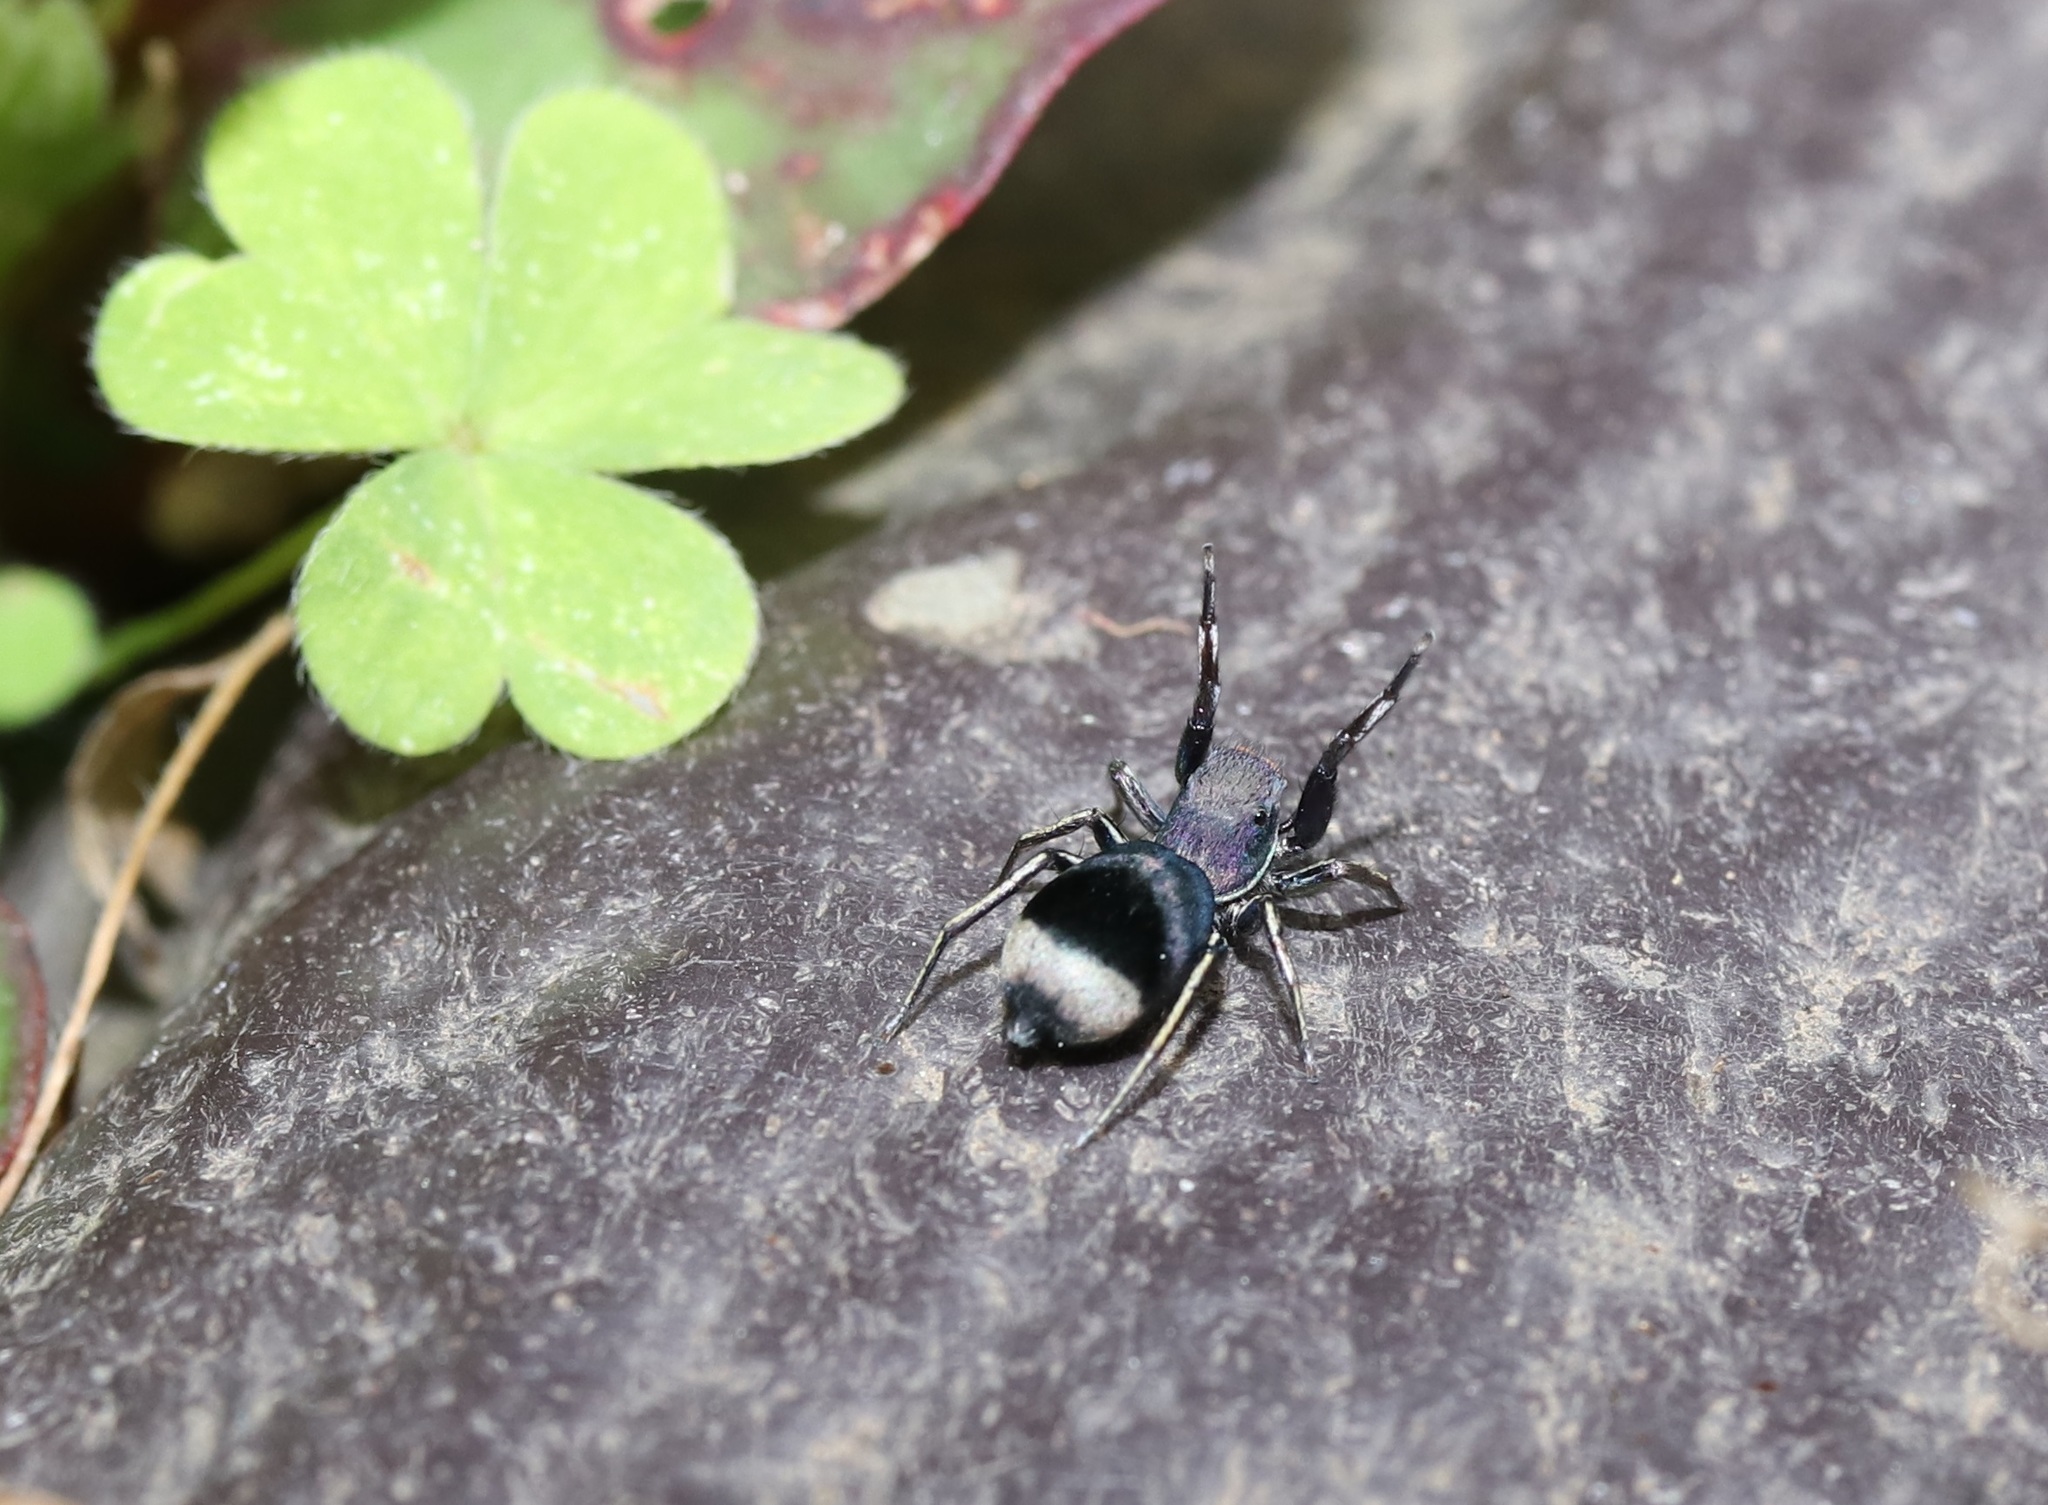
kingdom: Animalia
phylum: Arthropoda
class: Arachnida
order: Araneae
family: Salticidae
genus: Siler
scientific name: Siler cupreus
